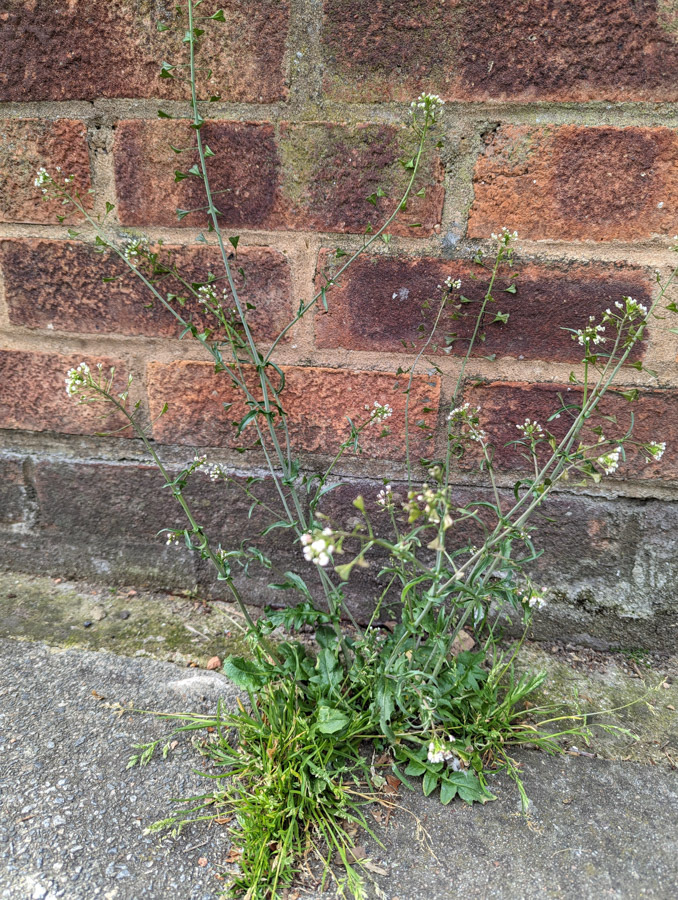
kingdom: Plantae
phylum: Tracheophyta
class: Magnoliopsida
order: Brassicales
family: Brassicaceae
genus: Capsella
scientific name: Capsella bursa-pastoris
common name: Shepherd's purse
